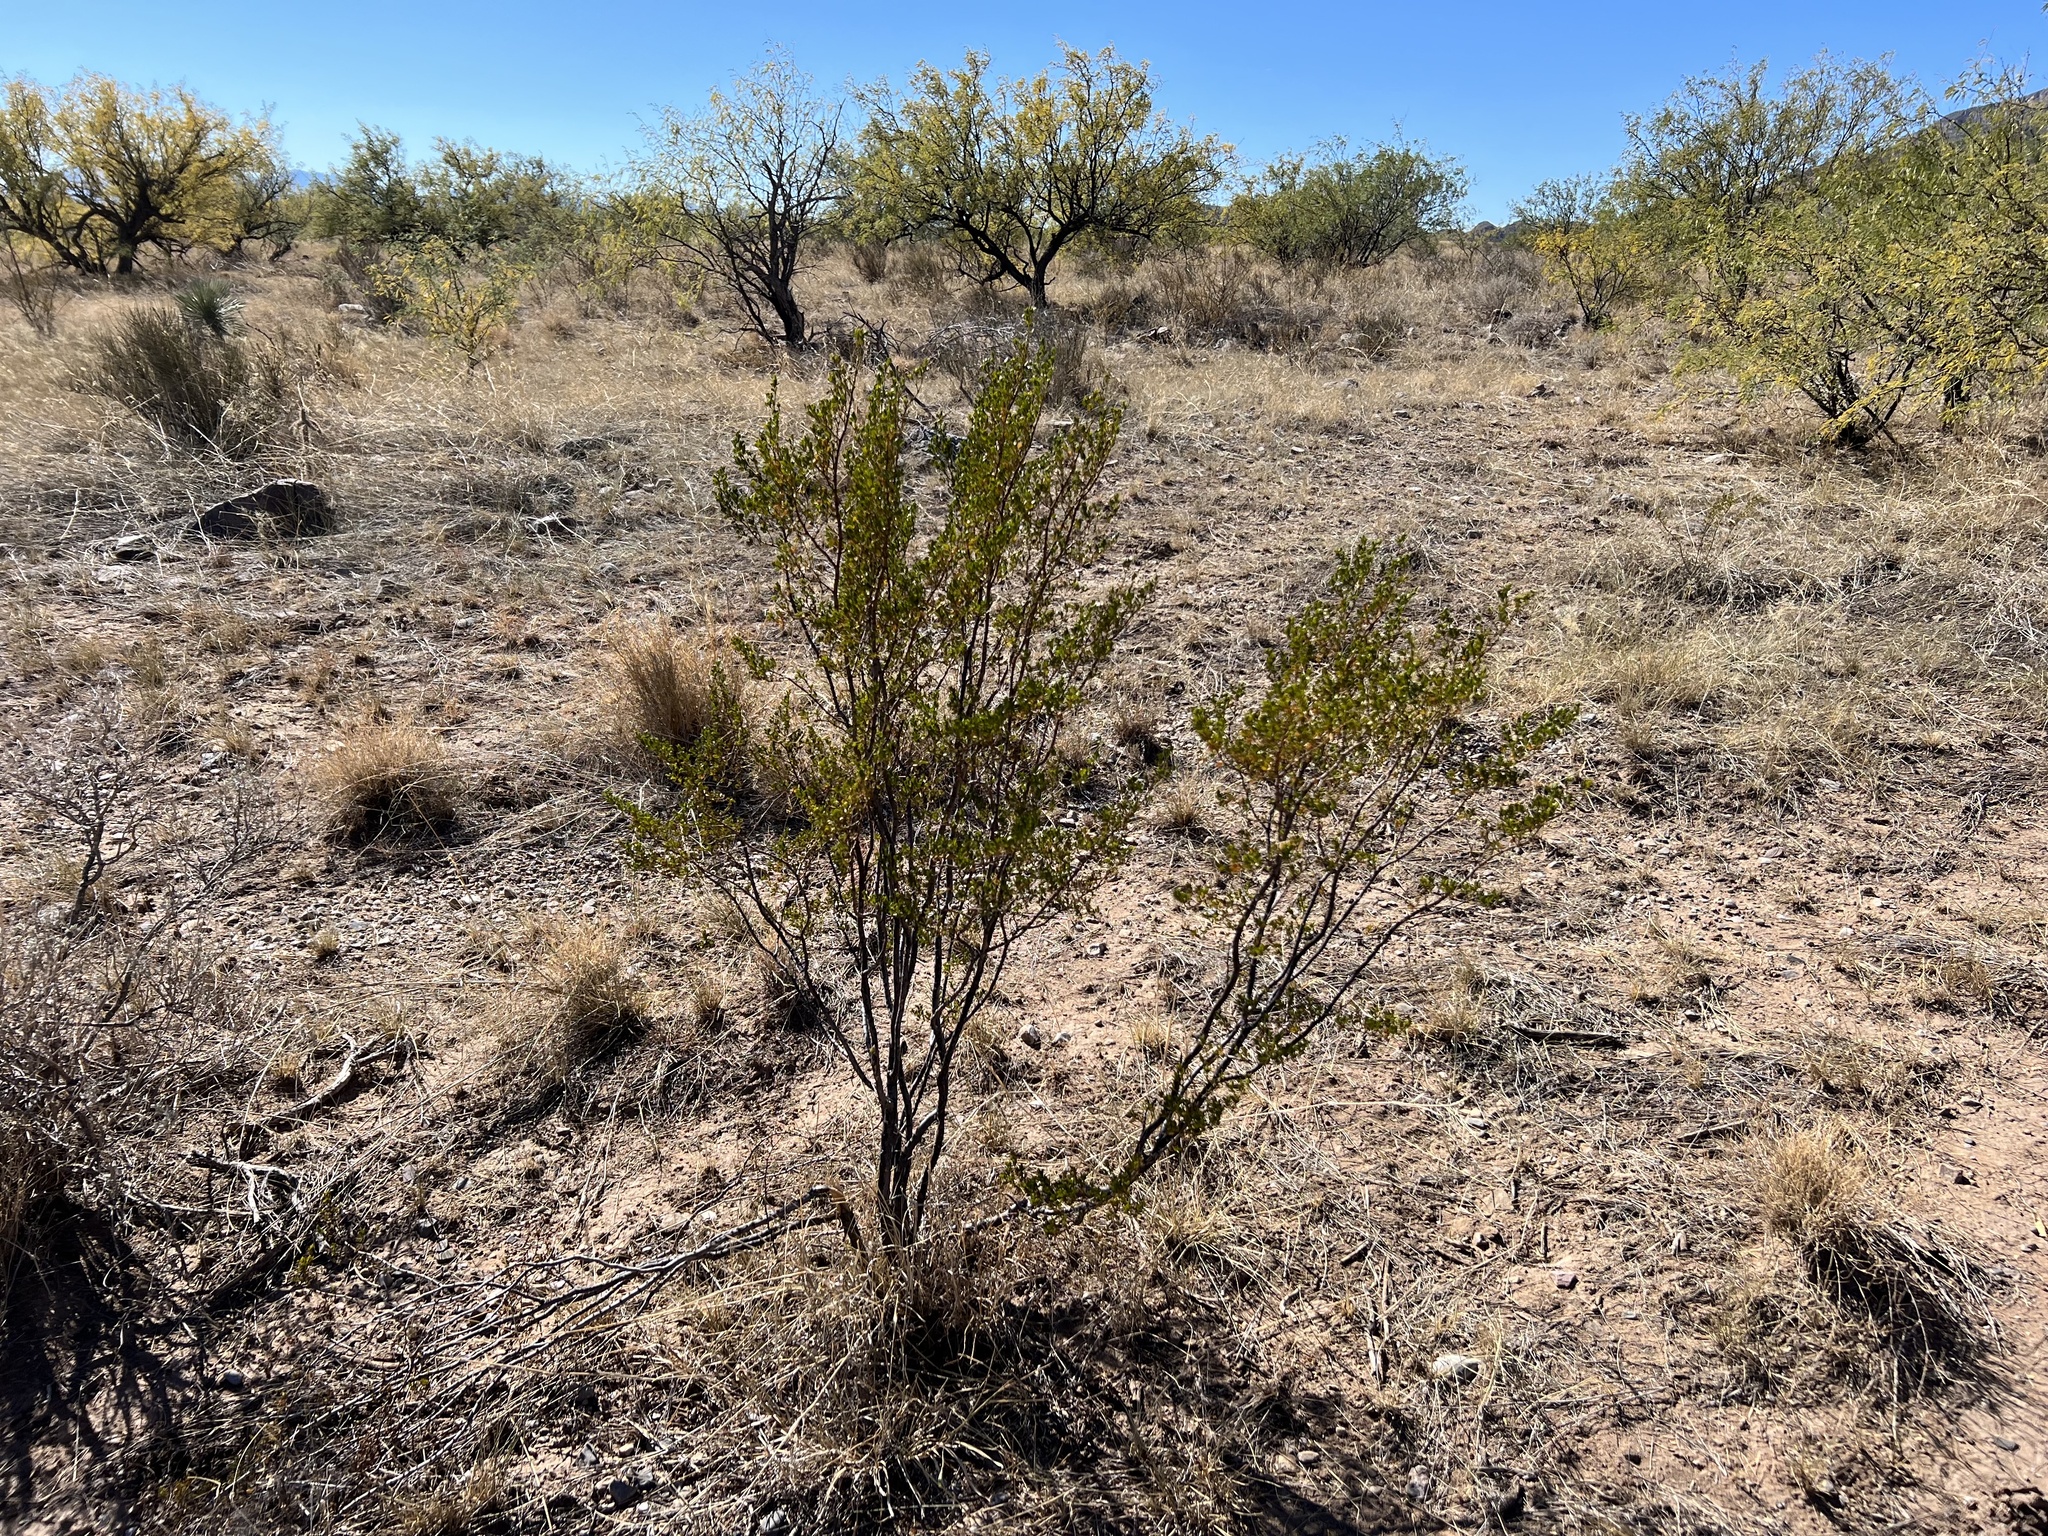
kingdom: Plantae
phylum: Tracheophyta
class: Magnoliopsida
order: Zygophyllales
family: Zygophyllaceae
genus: Larrea
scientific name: Larrea tridentata
